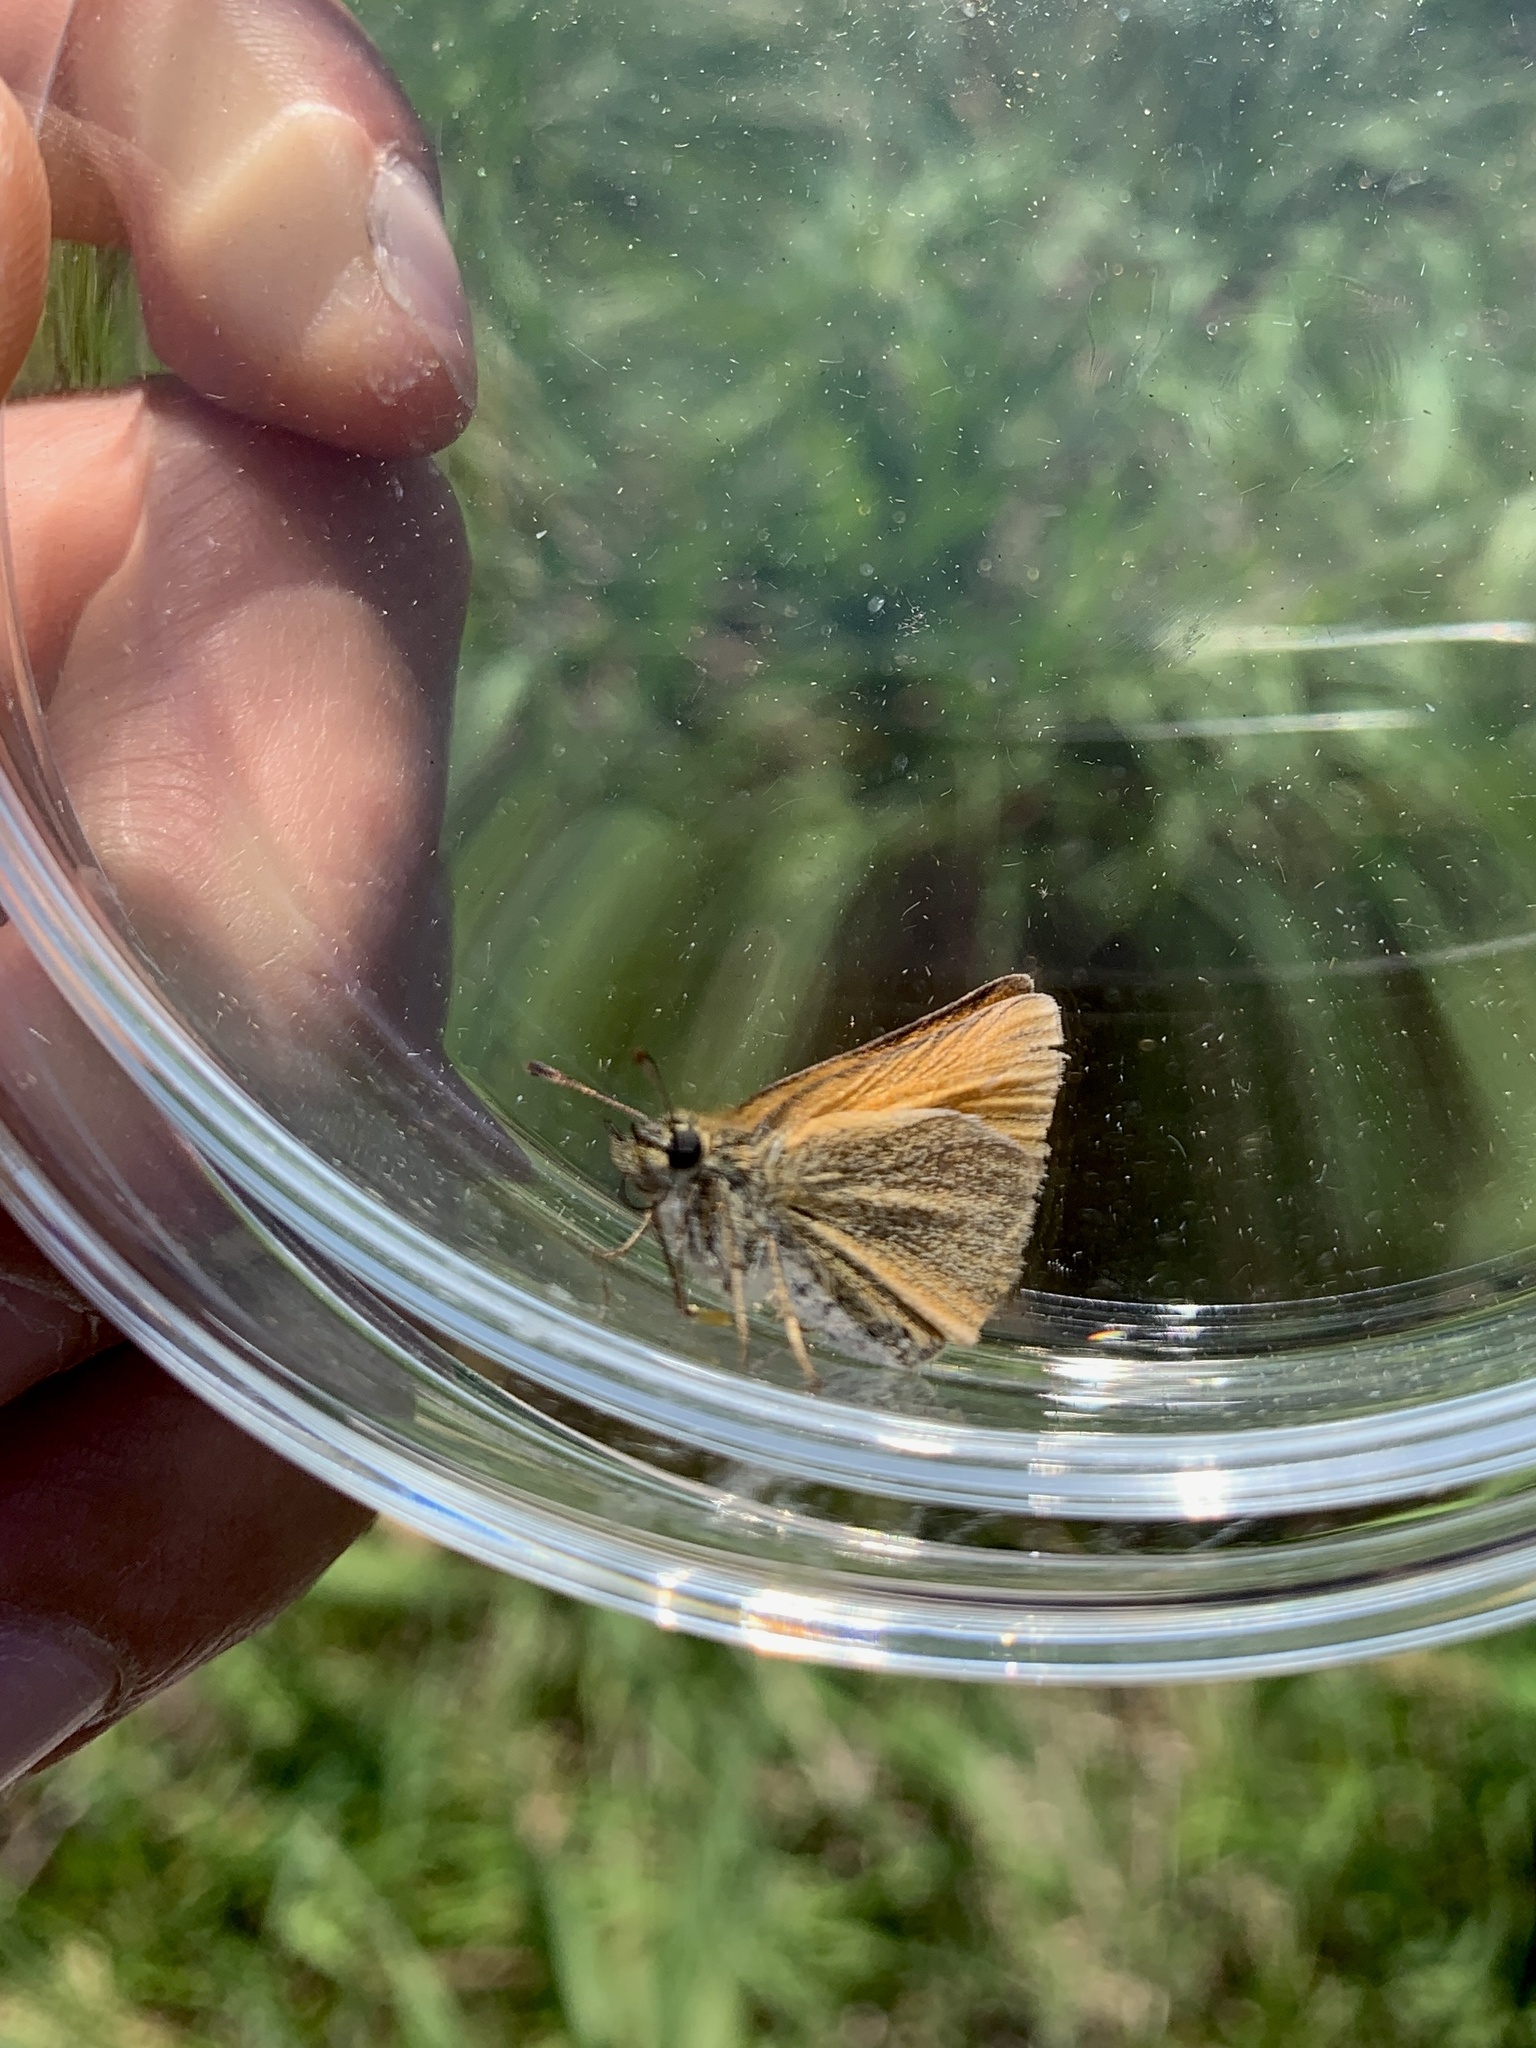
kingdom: Animalia
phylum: Arthropoda
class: Insecta
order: Lepidoptera
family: Hesperiidae
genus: Thymelicus
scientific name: Thymelicus lineola
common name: Essex skipper
